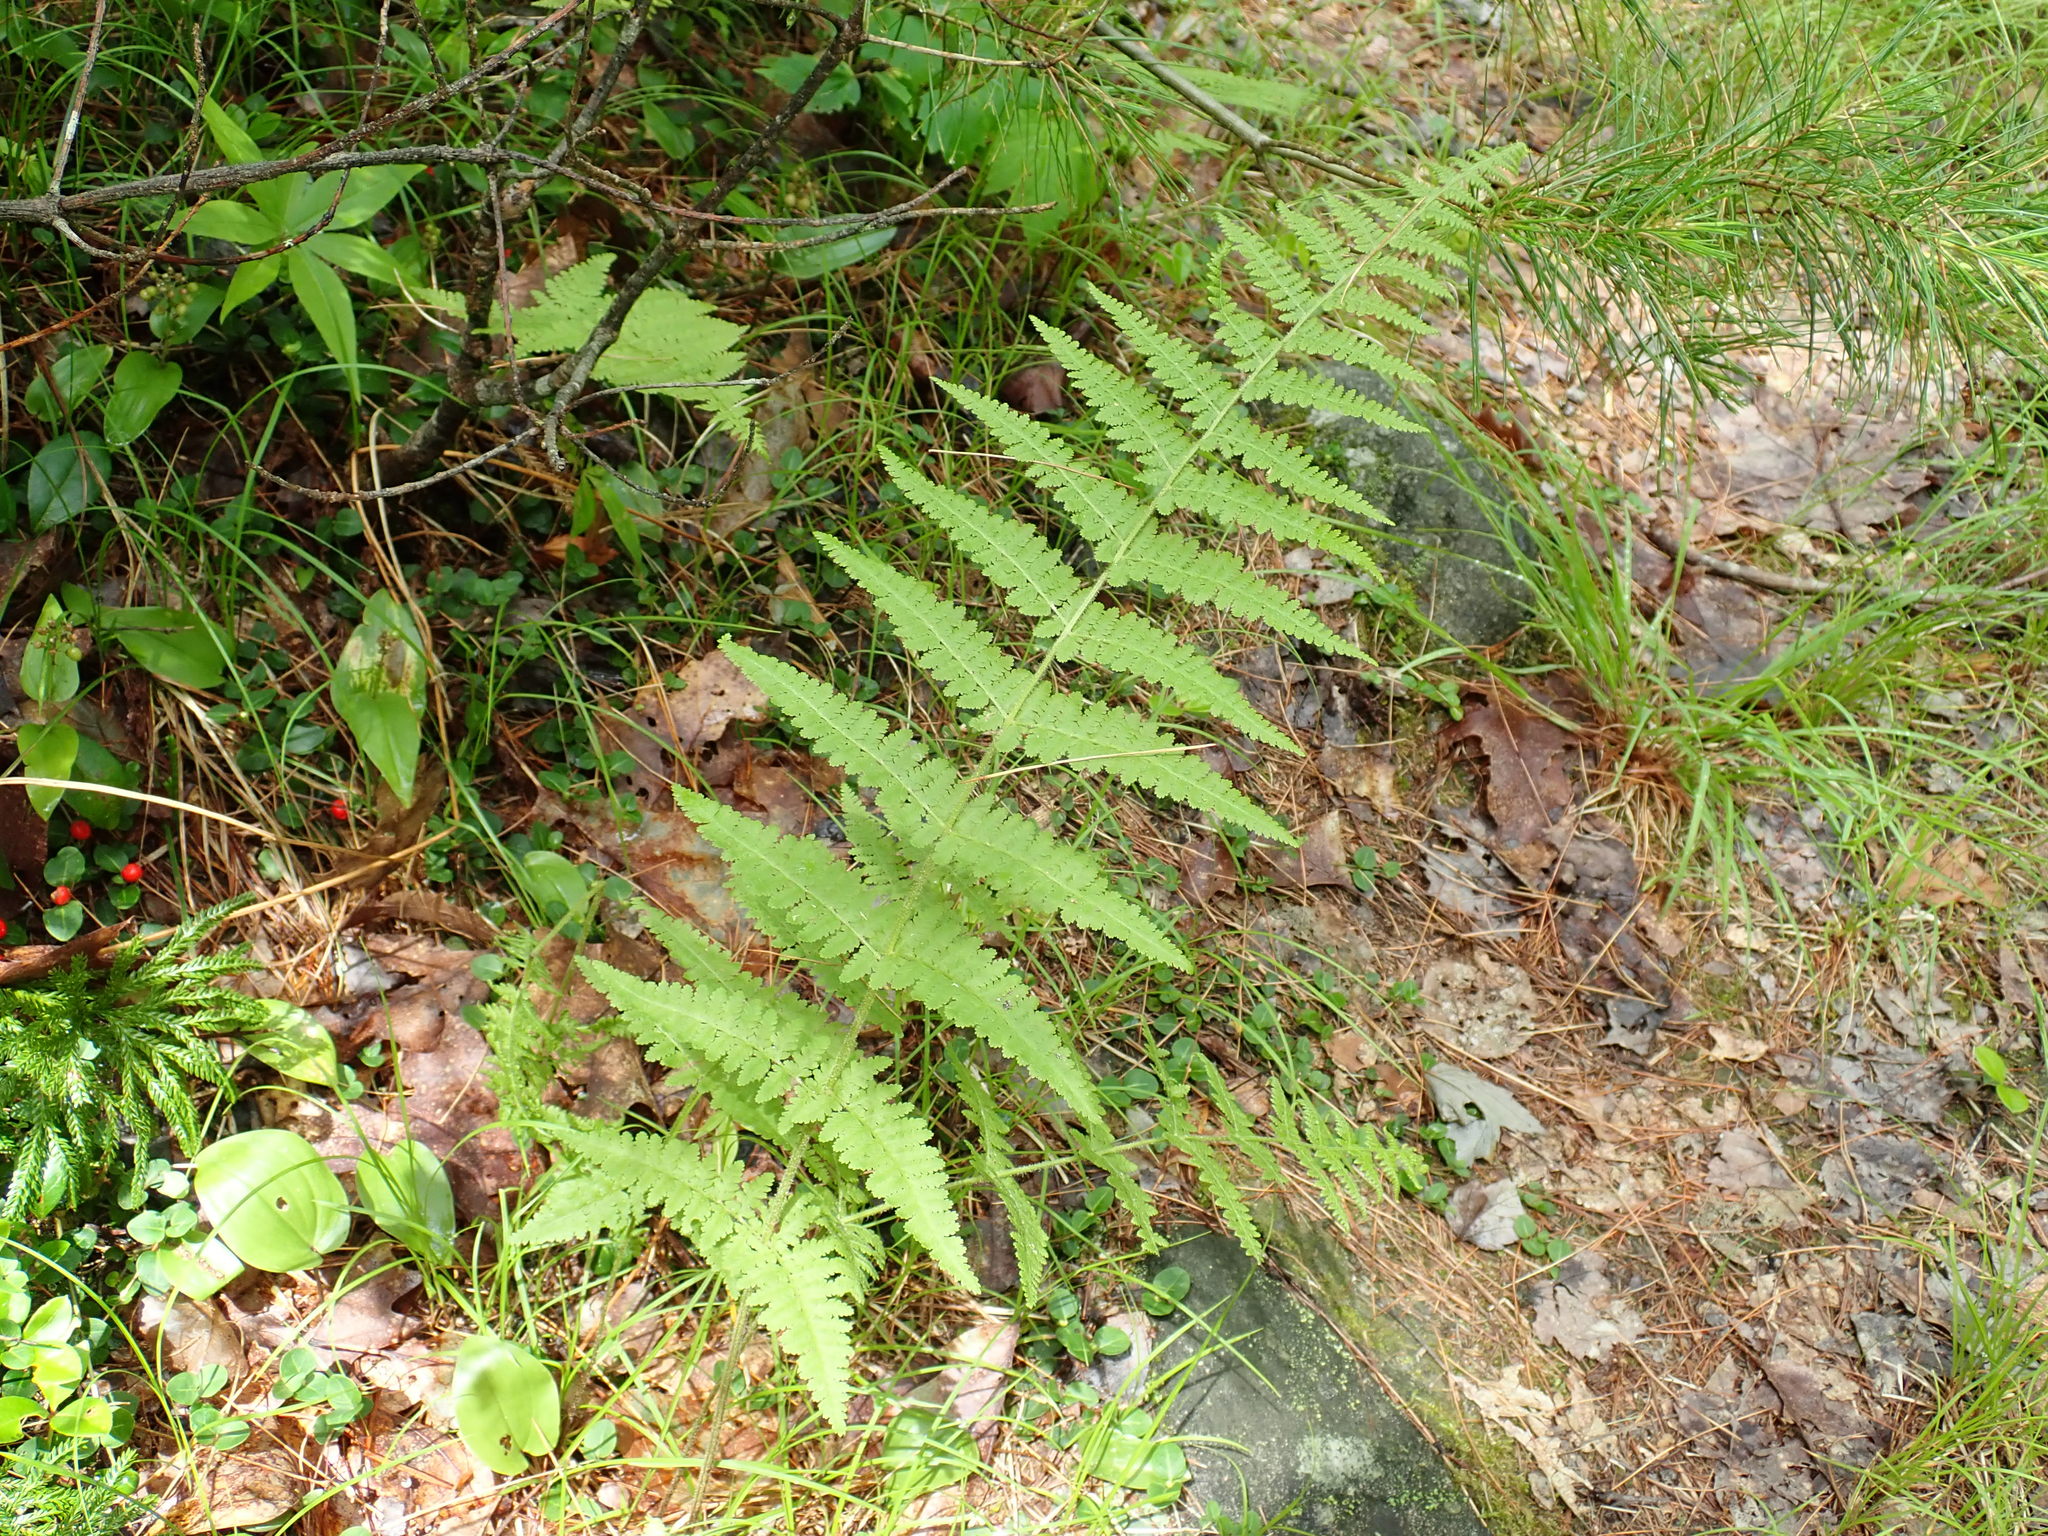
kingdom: Plantae
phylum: Tracheophyta
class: Polypodiopsida
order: Polypodiales
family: Dennstaedtiaceae
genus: Sitobolium
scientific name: Sitobolium punctilobum
